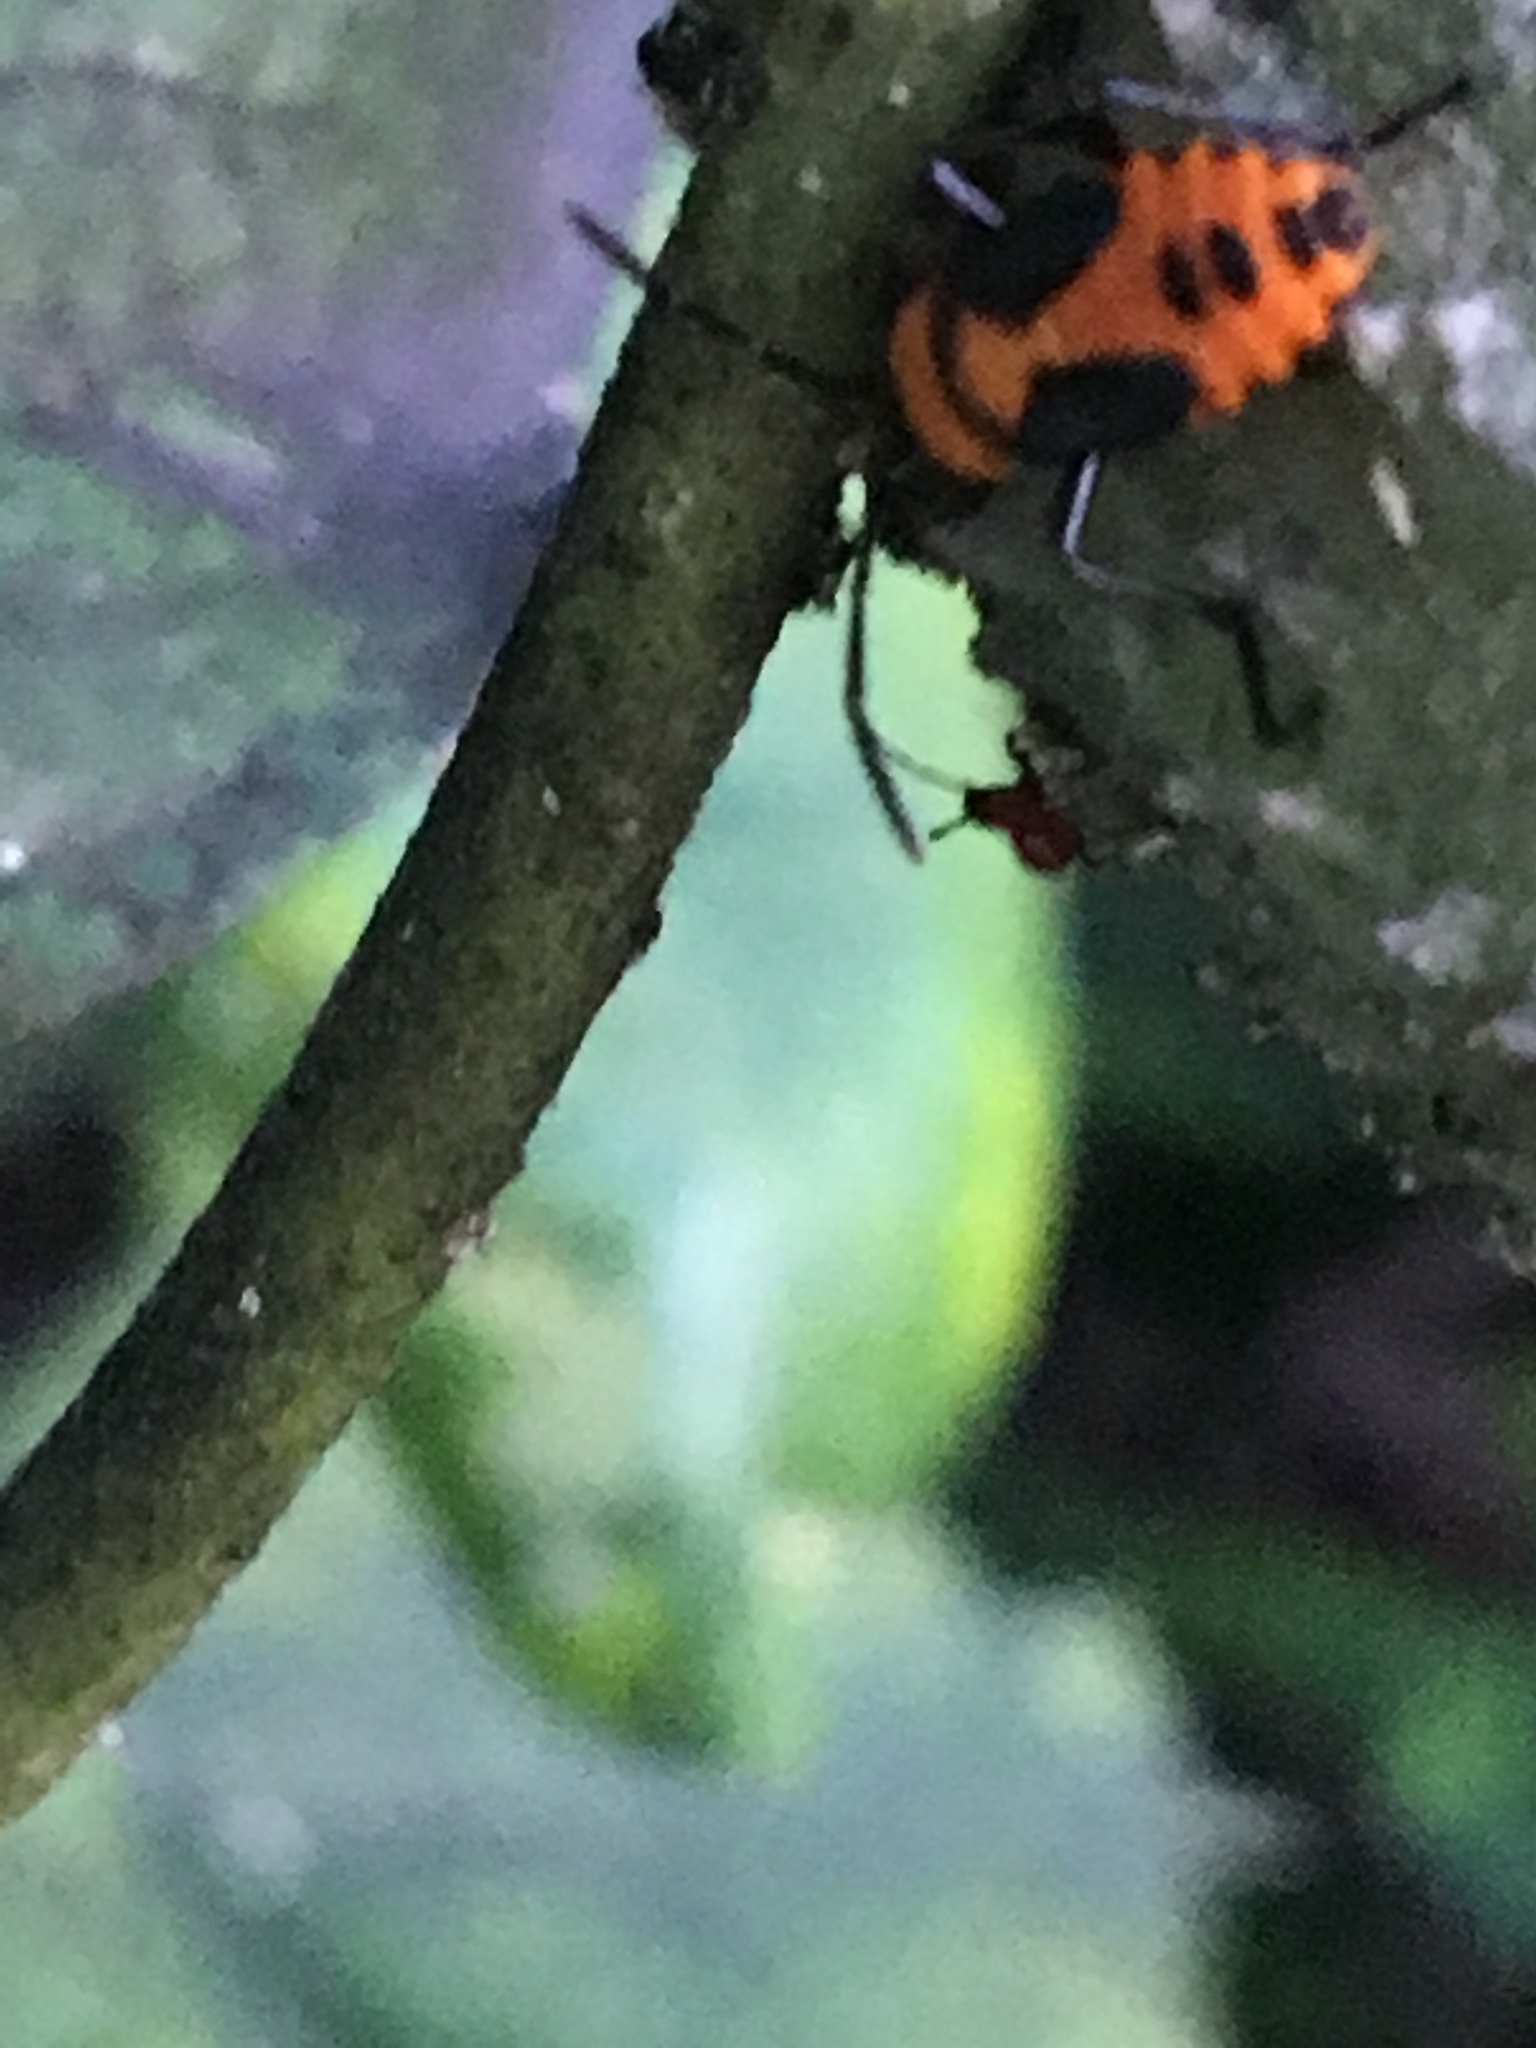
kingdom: Animalia
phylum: Arthropoda
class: Insecta
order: Hemiptera
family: Lygaeidae
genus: Oncopeltus
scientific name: Oncopeltus fasciatus
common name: Large milkweed bug
